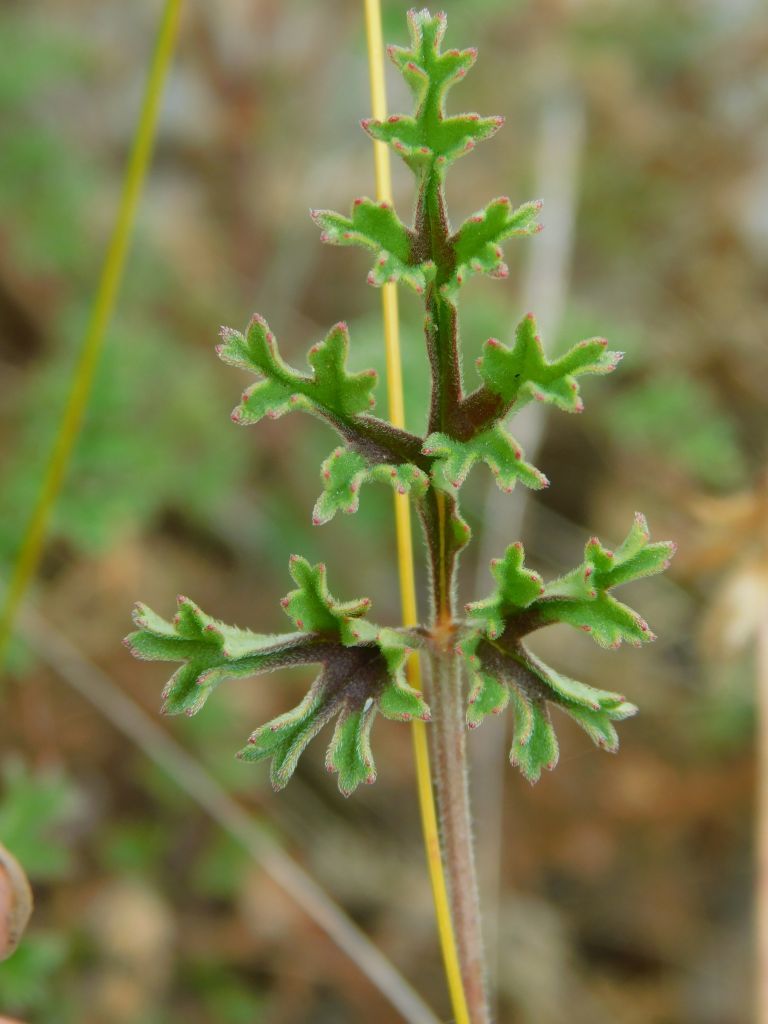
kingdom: Plantae
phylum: Tracheophyta
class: Magnoliopsida
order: Geraniales
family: Geraniaceae
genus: Pelargonium
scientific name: Pelargonium myrrhifolium
